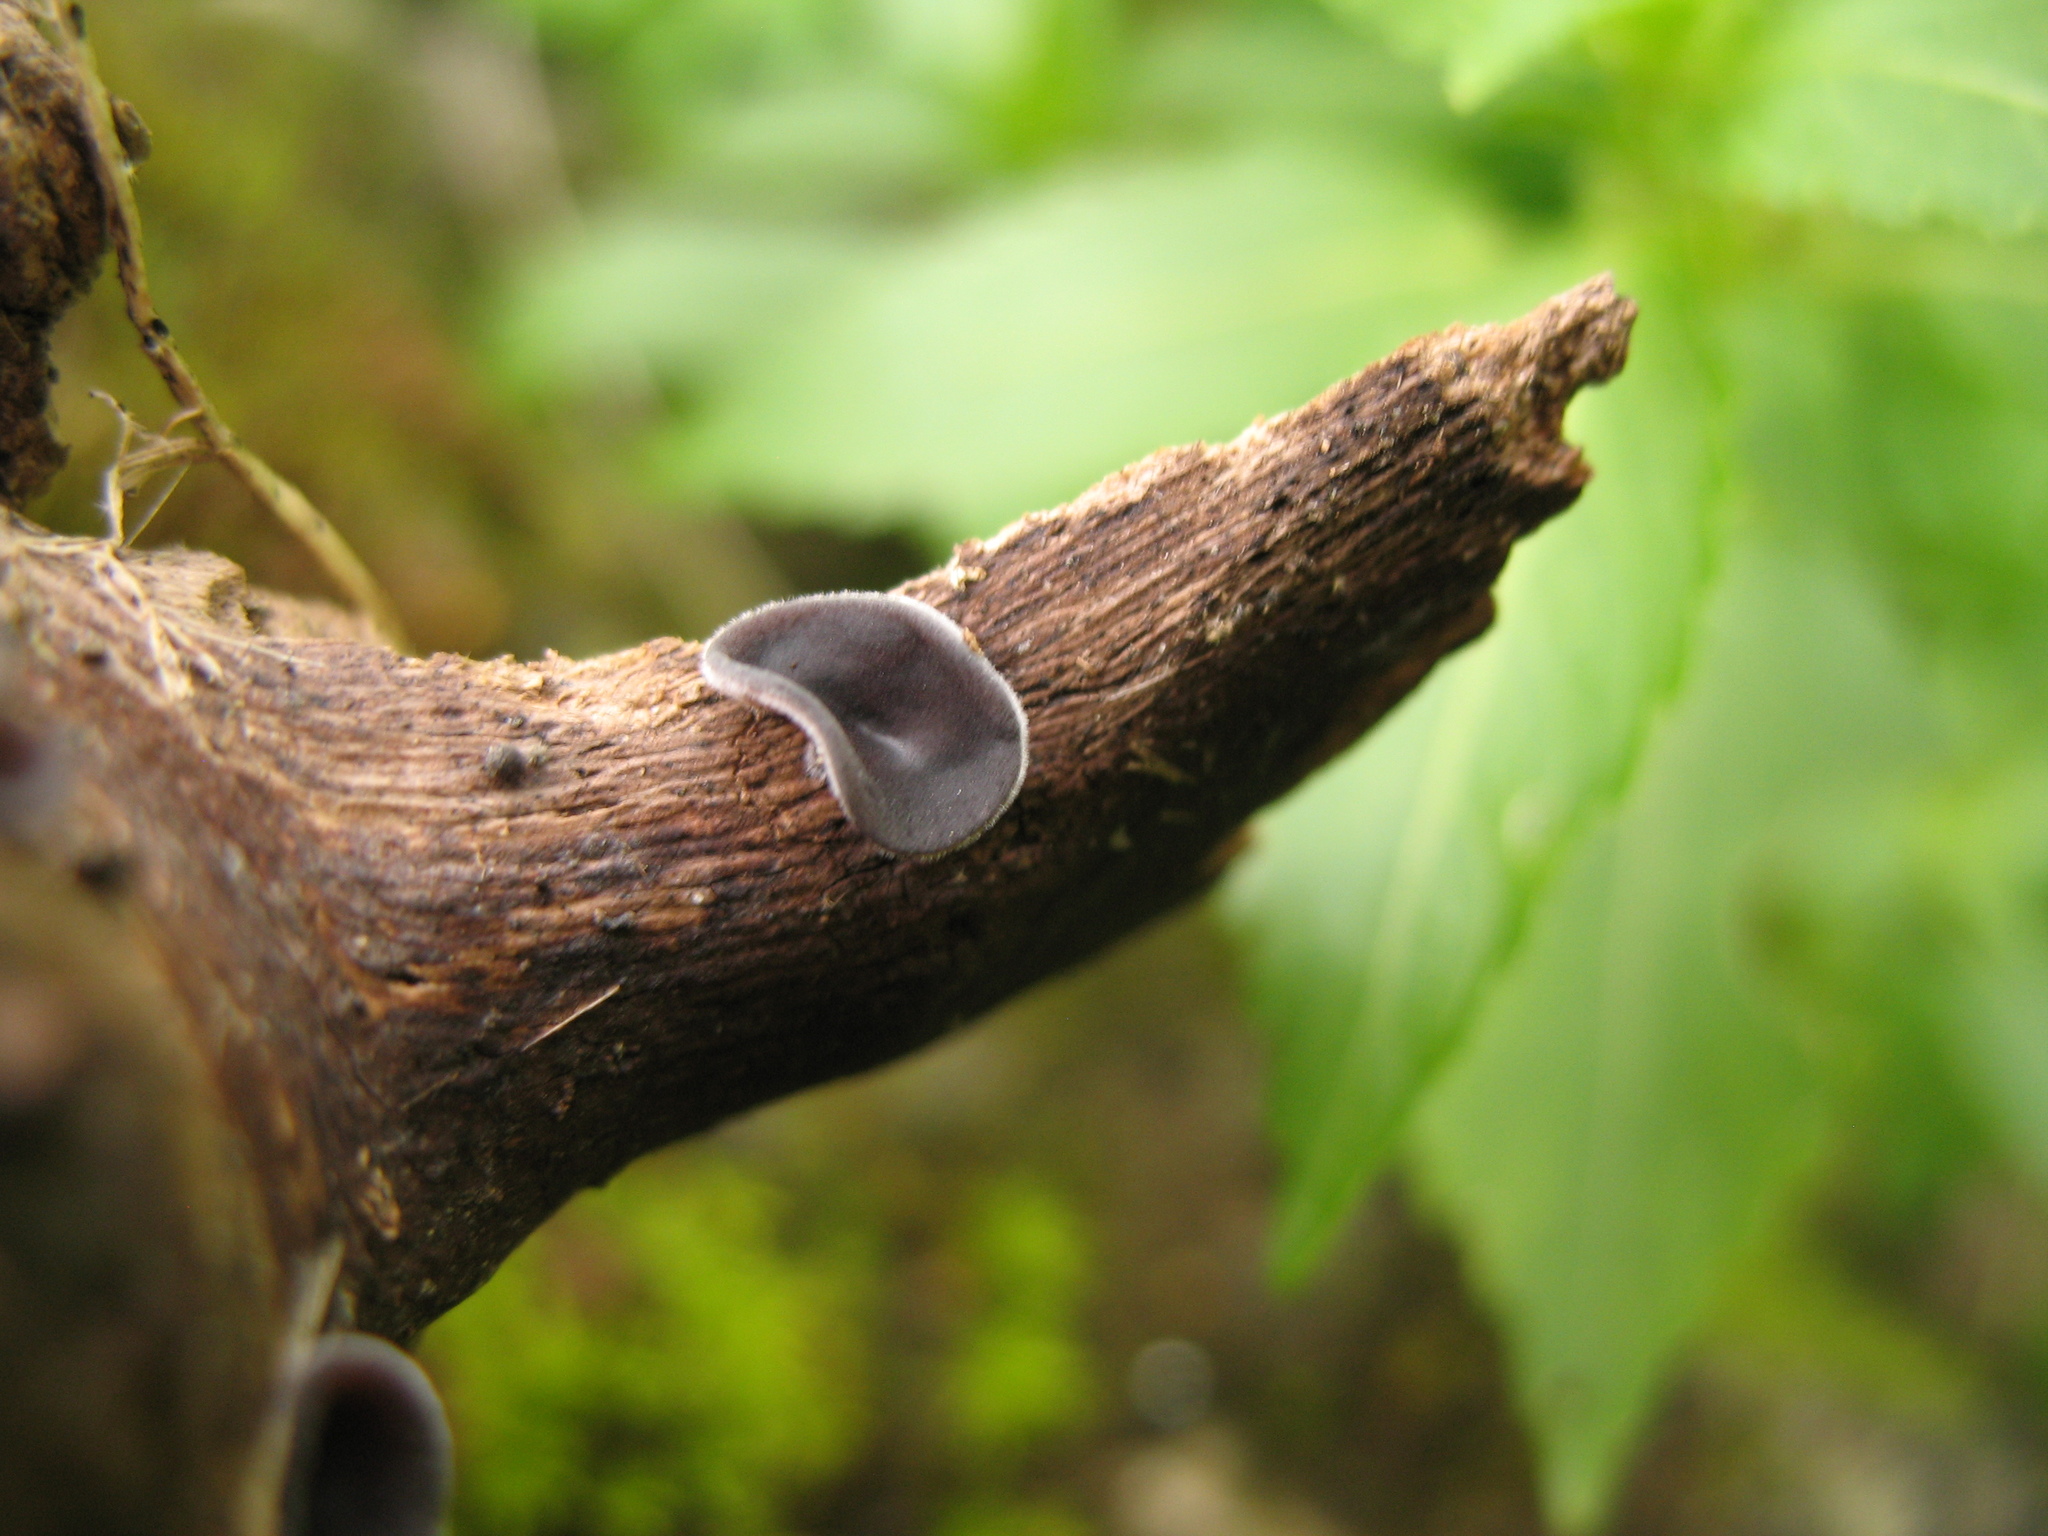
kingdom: Fungi
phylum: Basidiomycota
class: Agaricomycetes
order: Agaricales
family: Schizophyllaceae
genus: Schizophyllum
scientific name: Schizophyllum amplum
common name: Poplar bells
